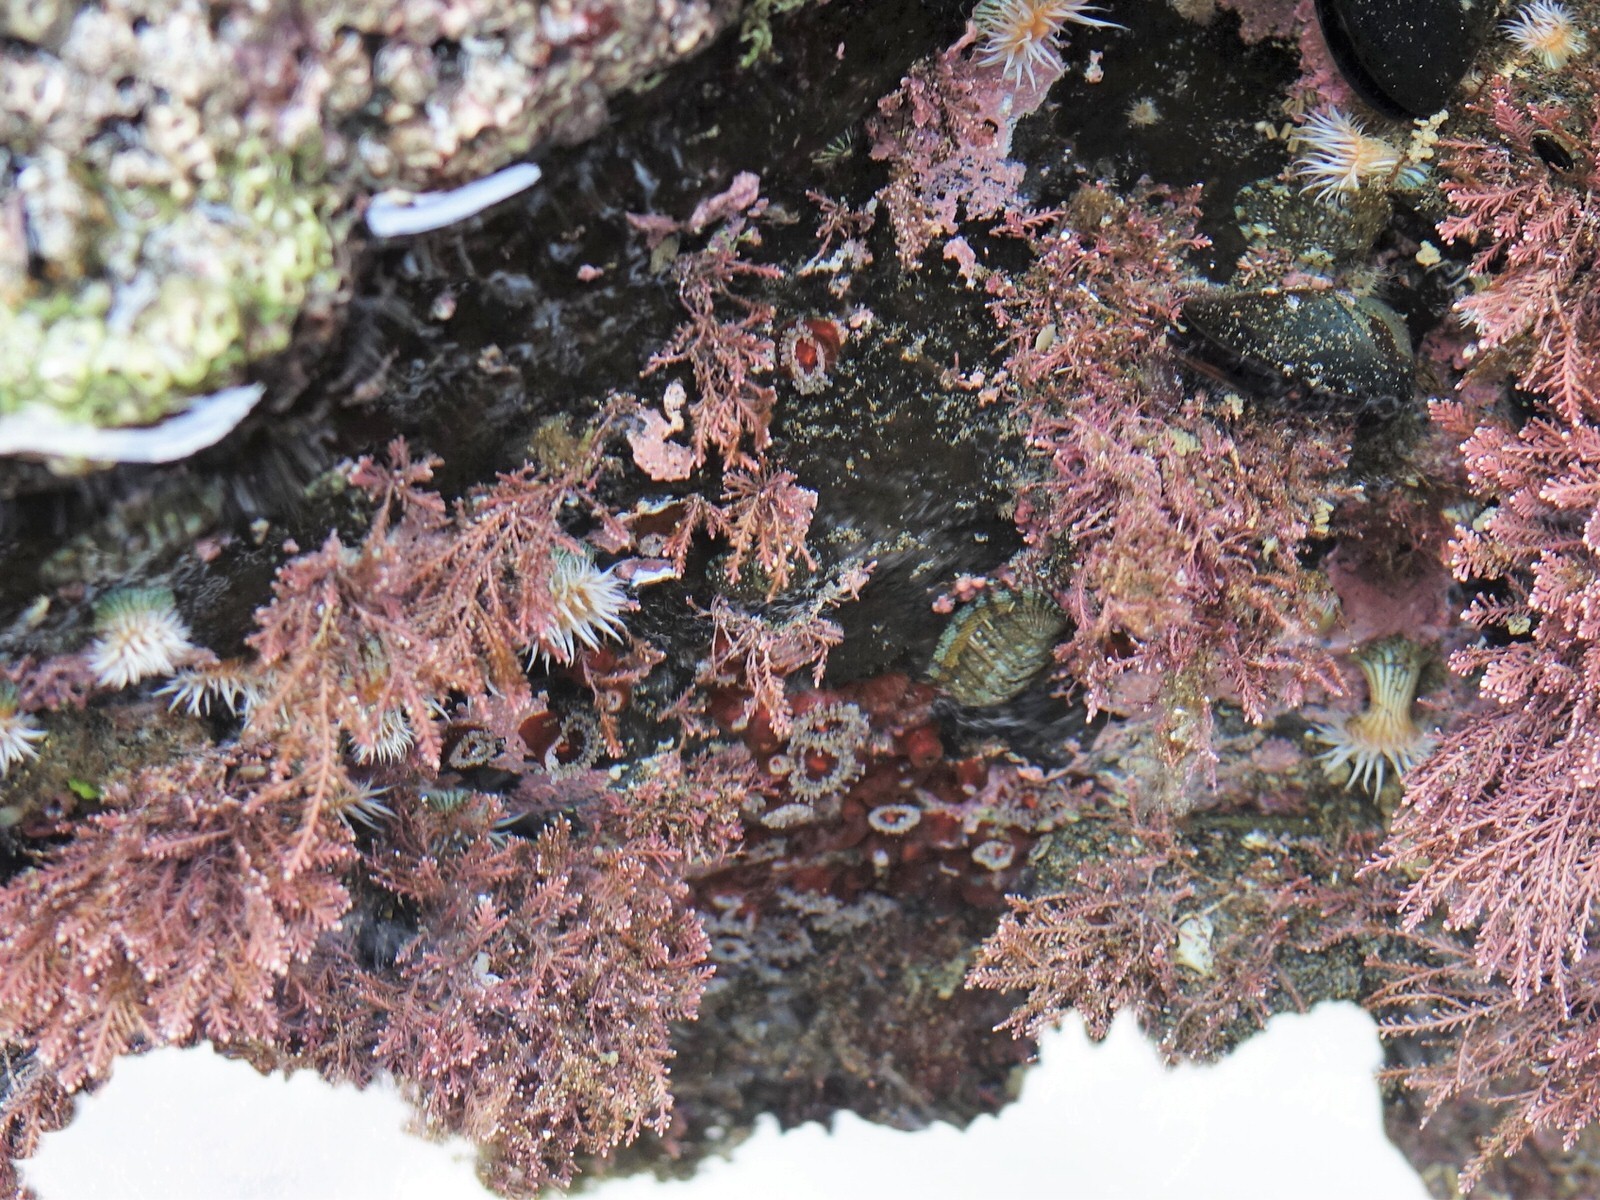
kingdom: Animalia
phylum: Cnidaria
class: Anthozoa
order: Corallimorpharia
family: Corallimorphidae
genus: Corynactis
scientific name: Corynactis australis
